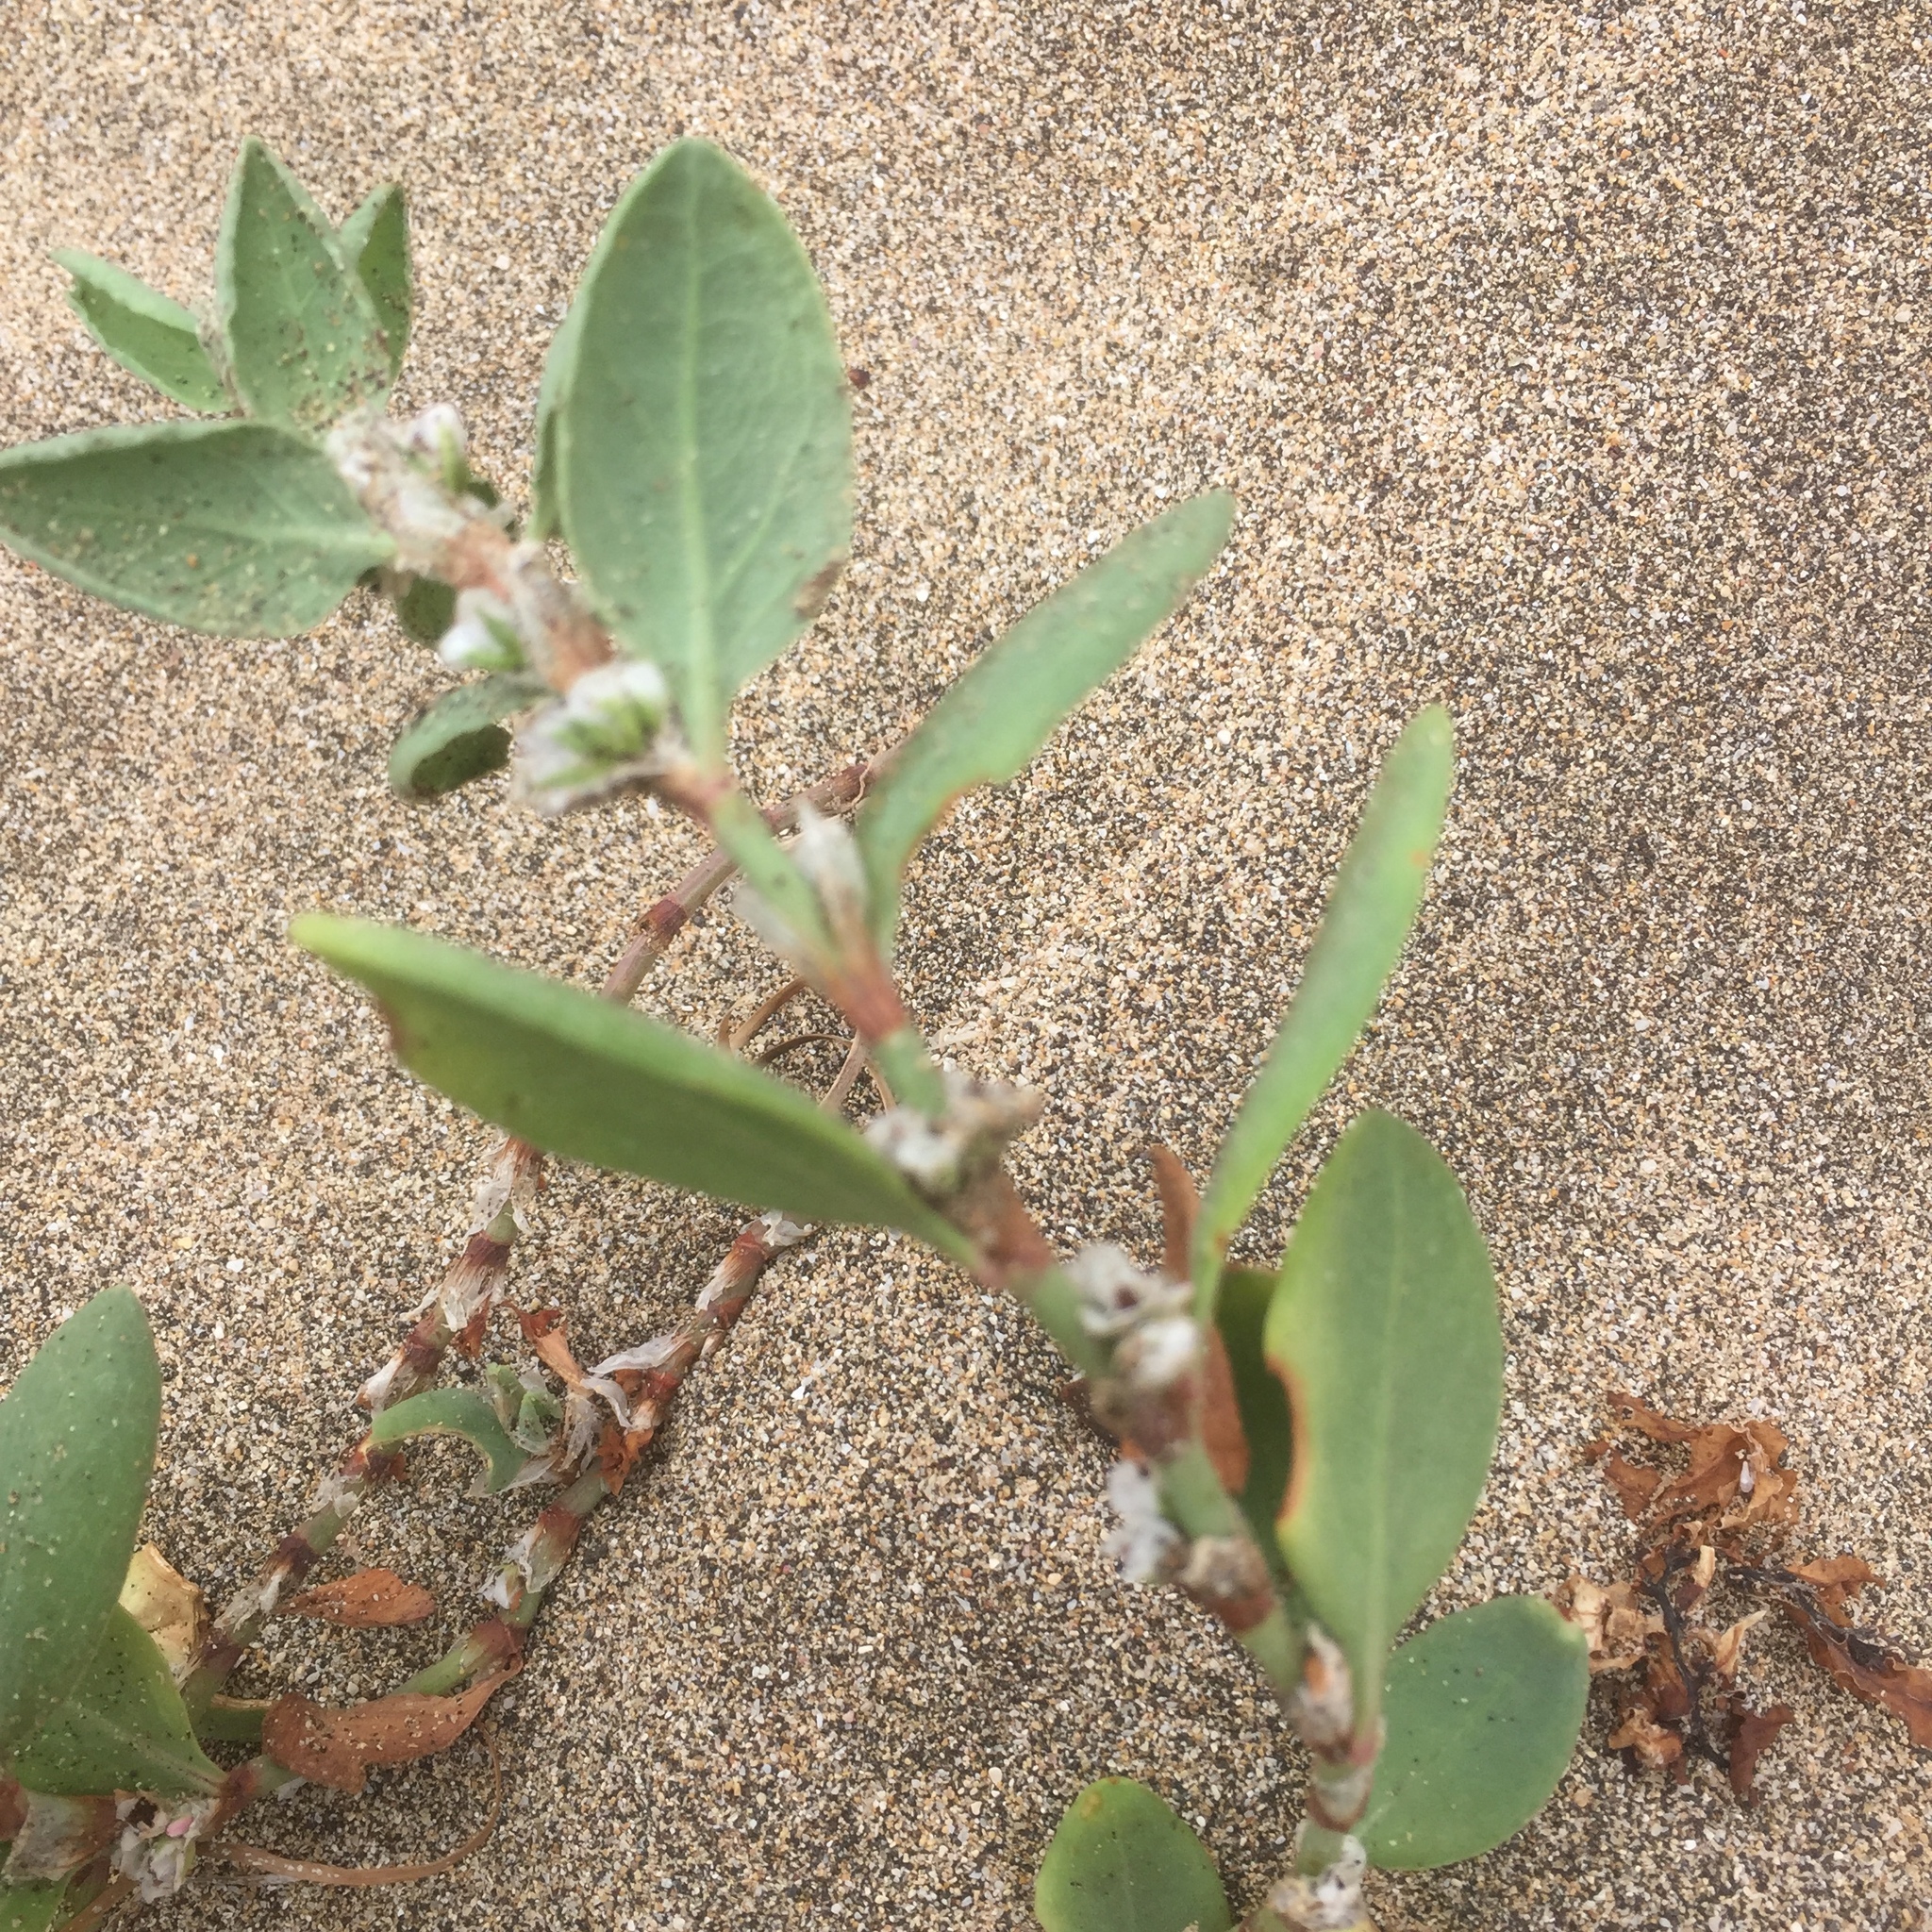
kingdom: Plantae
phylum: Tracheophyta
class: Magnoliopsida
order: Caryophyllales
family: Polygonaceae
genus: Polygonum
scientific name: Polygonum maritimum
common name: Sea knotgrass
